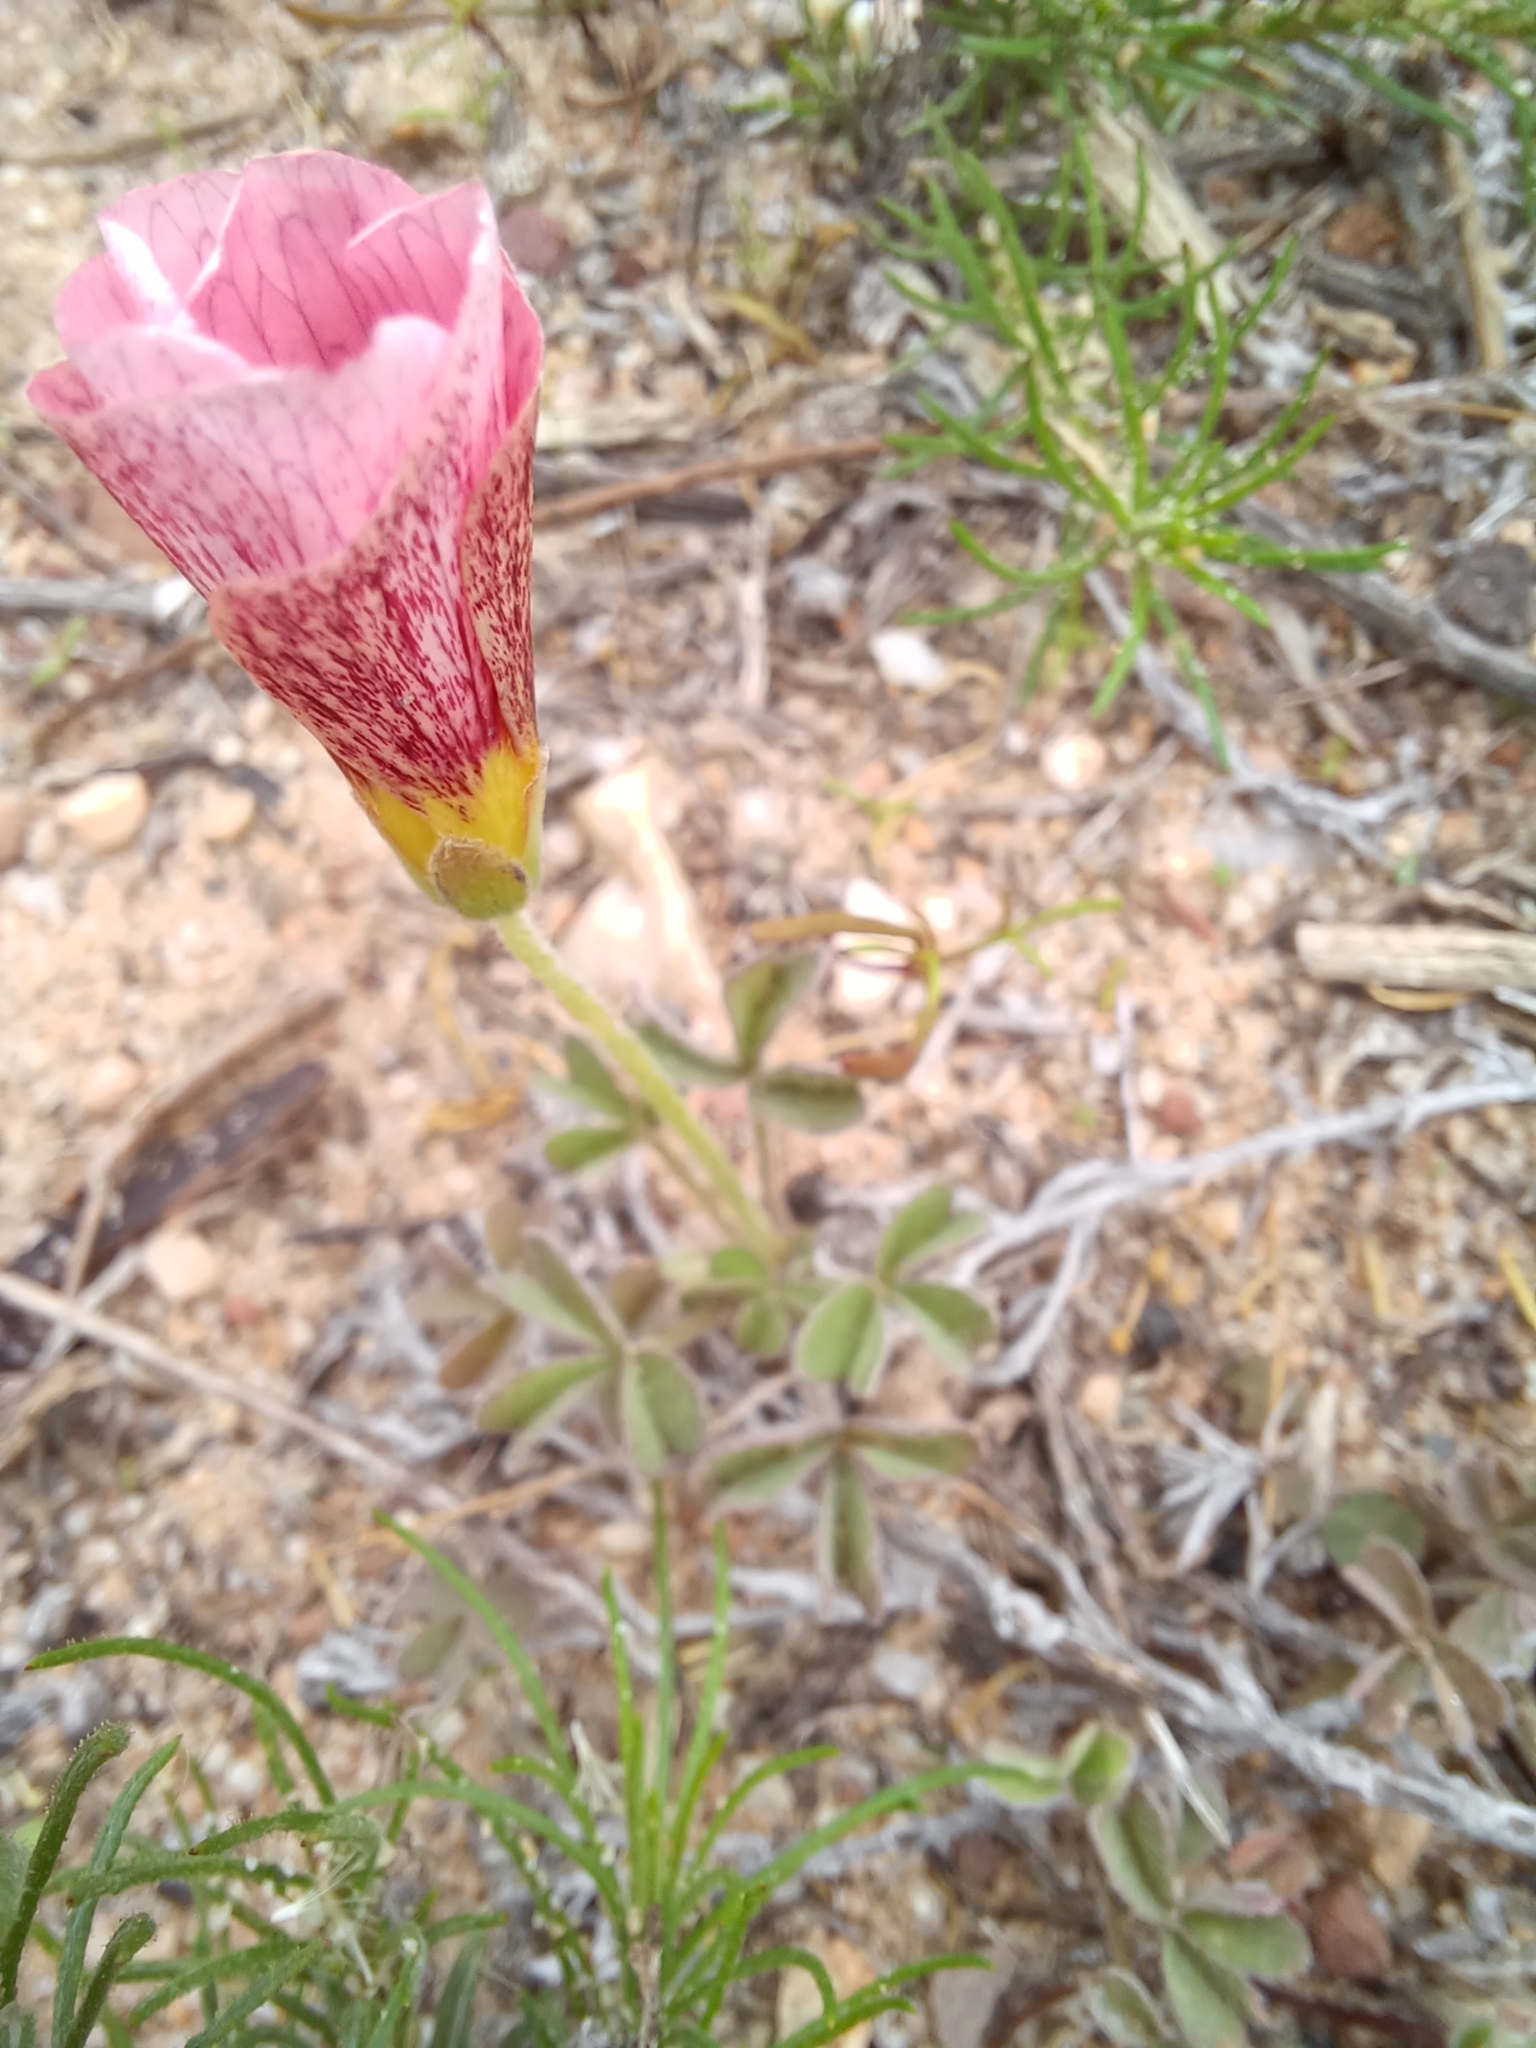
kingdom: Plantae
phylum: Tracheophyta
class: Magnoliopsida
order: Oxalidales
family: Oxalidaceae
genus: Oxalis
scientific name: Oxalis obtusa
